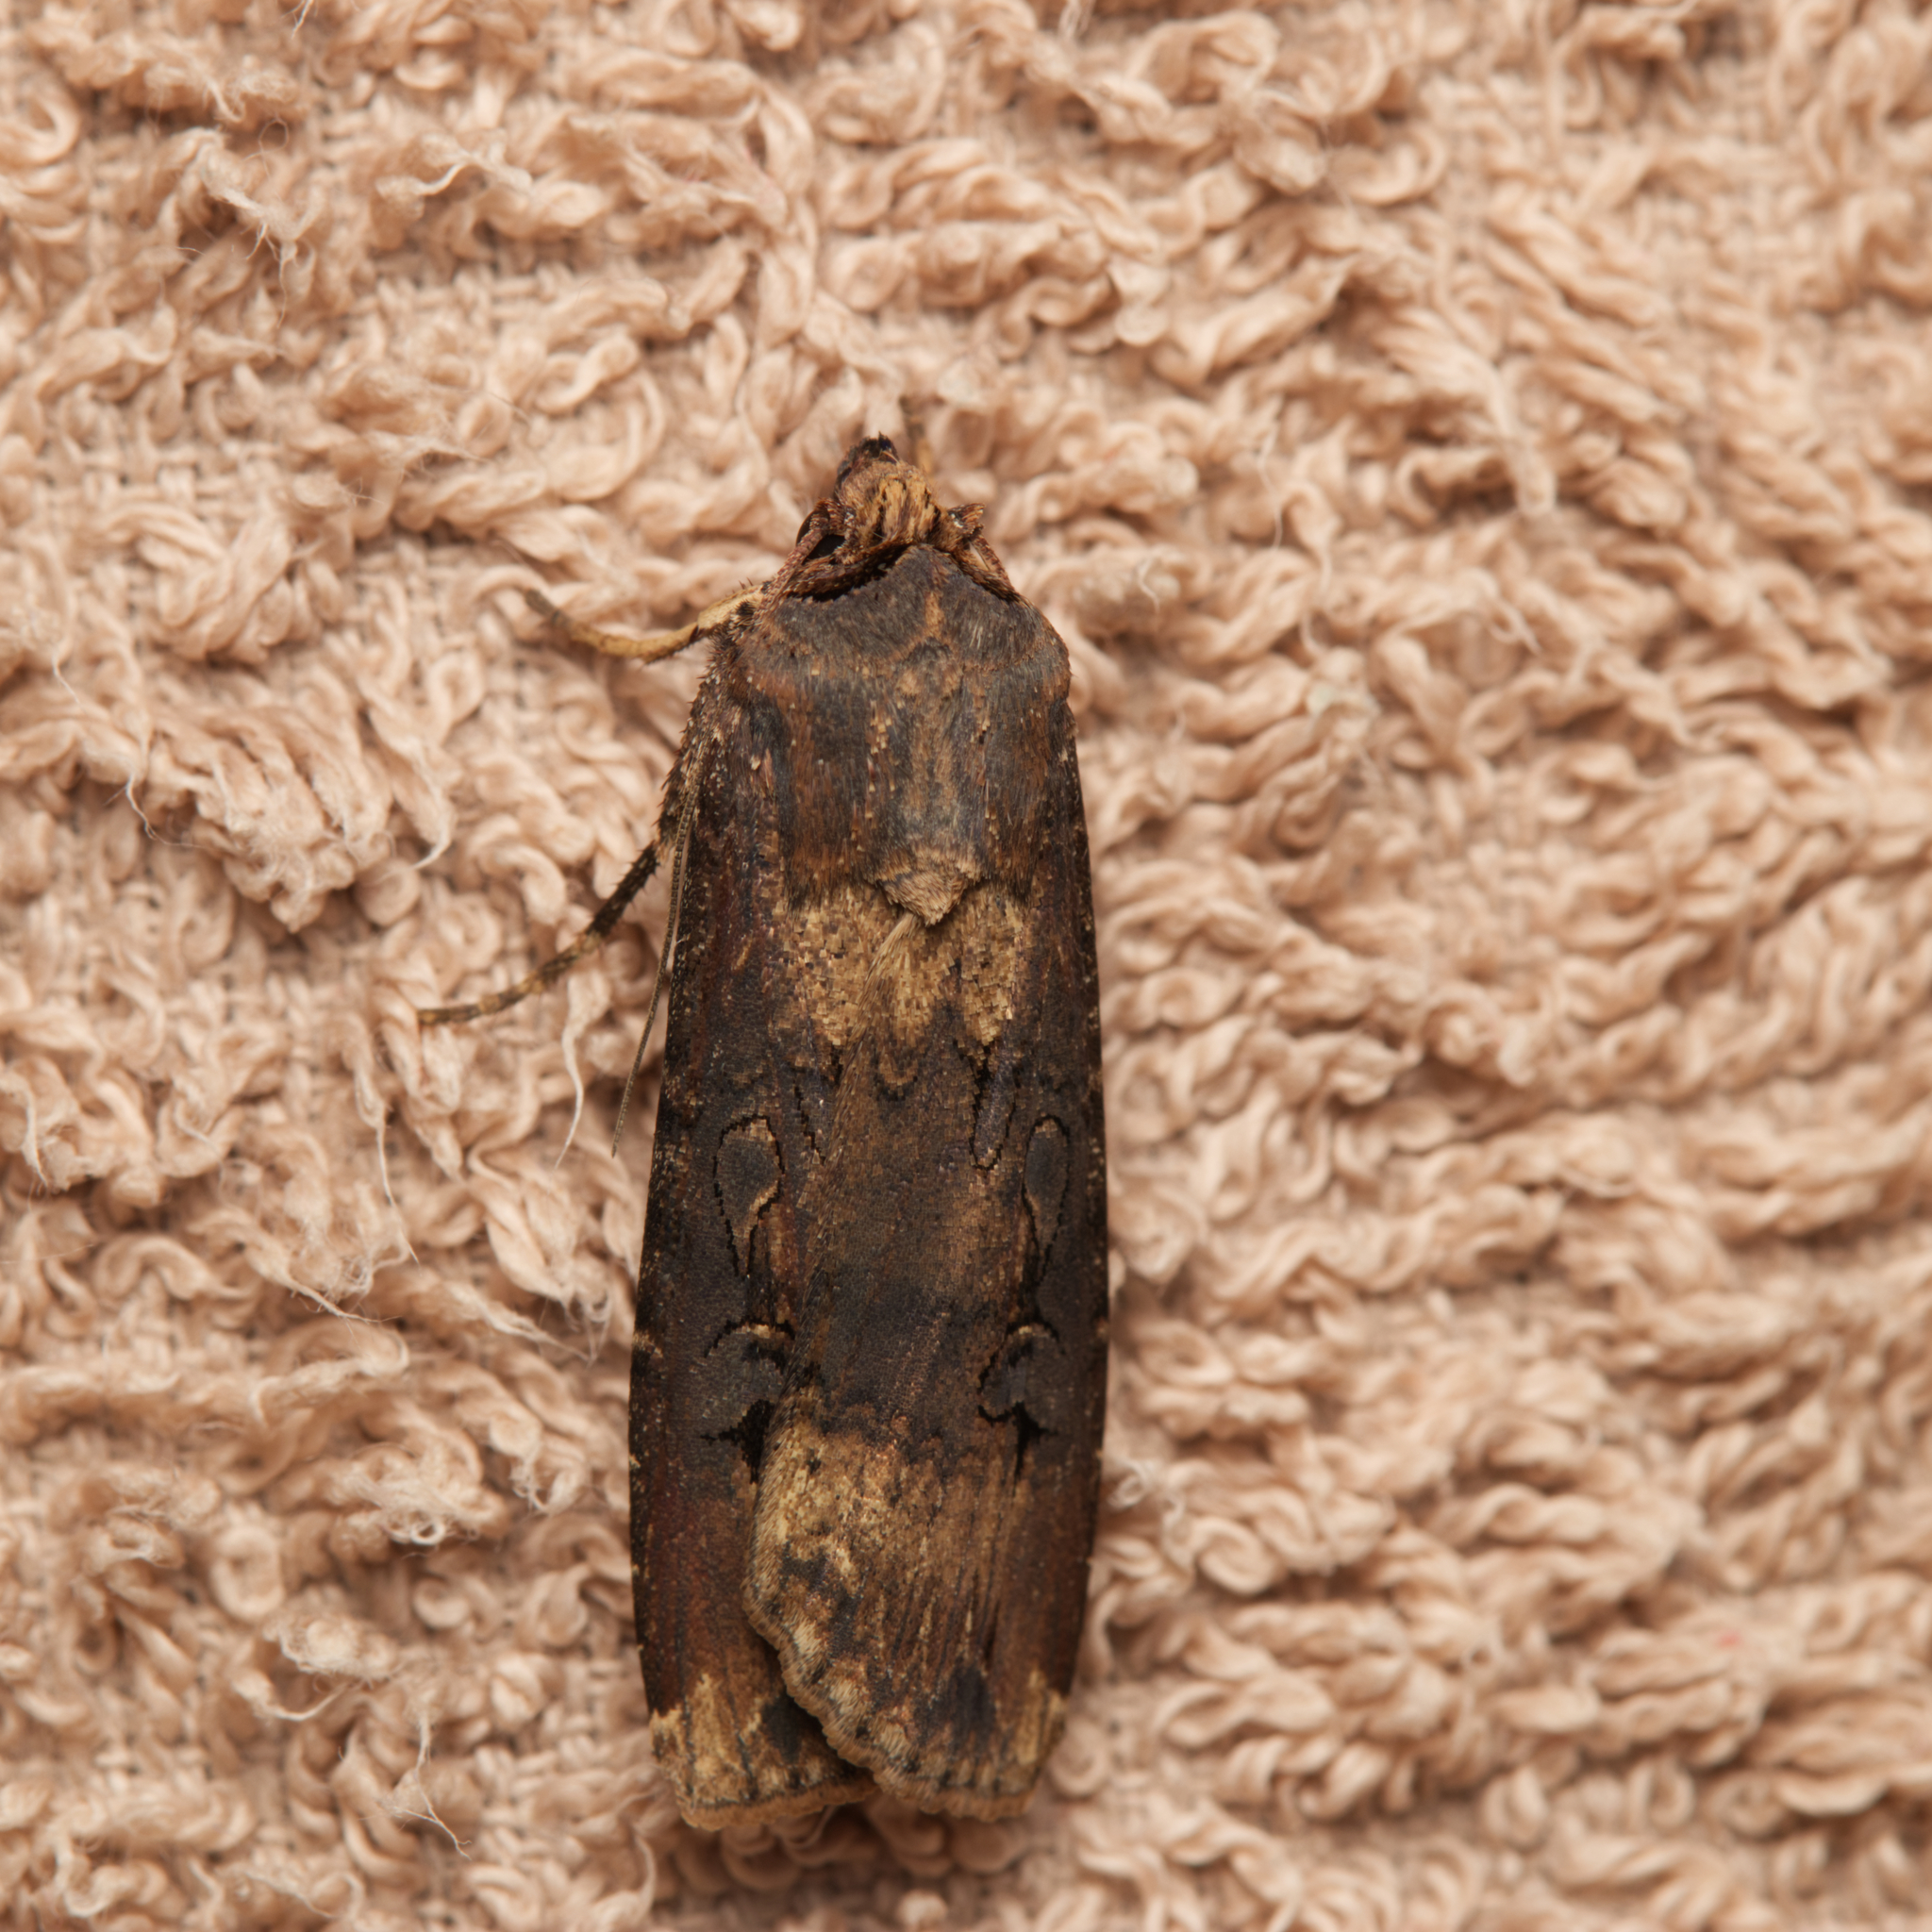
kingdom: Animalia
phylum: Arthropoda
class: Insecta
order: Lepidoptera
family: Noctuidae
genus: Agrotis
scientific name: Agrotis ipsilon
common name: Dark sword-grass
